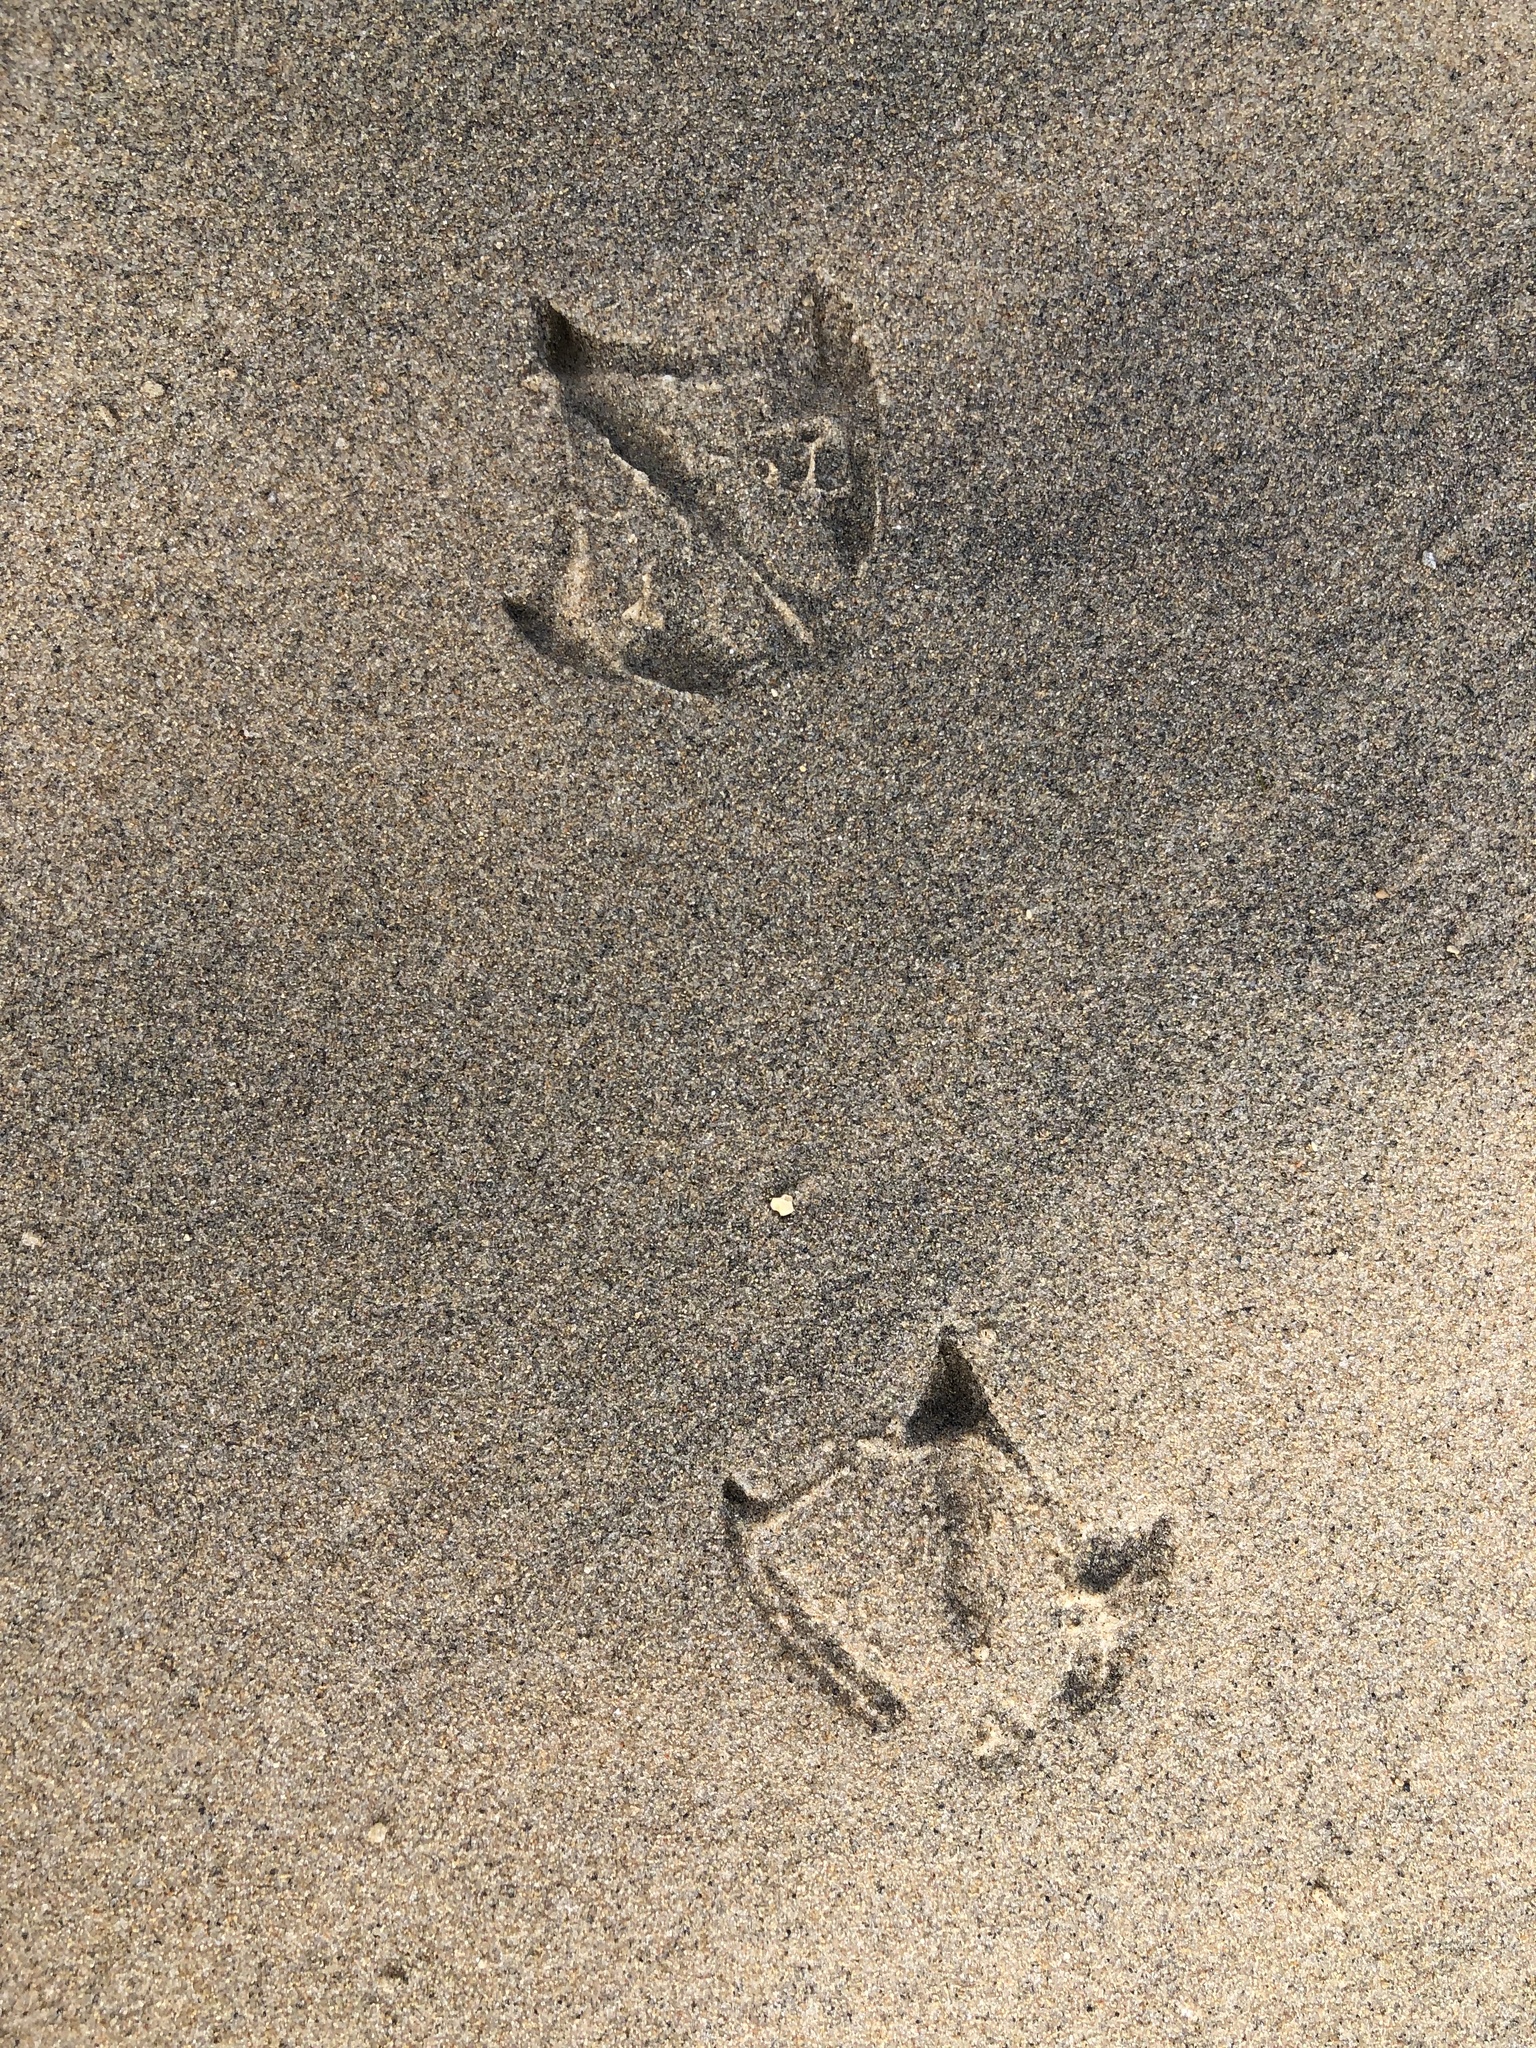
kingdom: Animalia
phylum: Chordata
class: Aves
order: Charadriiformes
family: Laridae
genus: Larus
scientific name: Larus delawarensis
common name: Ring-billed gull
